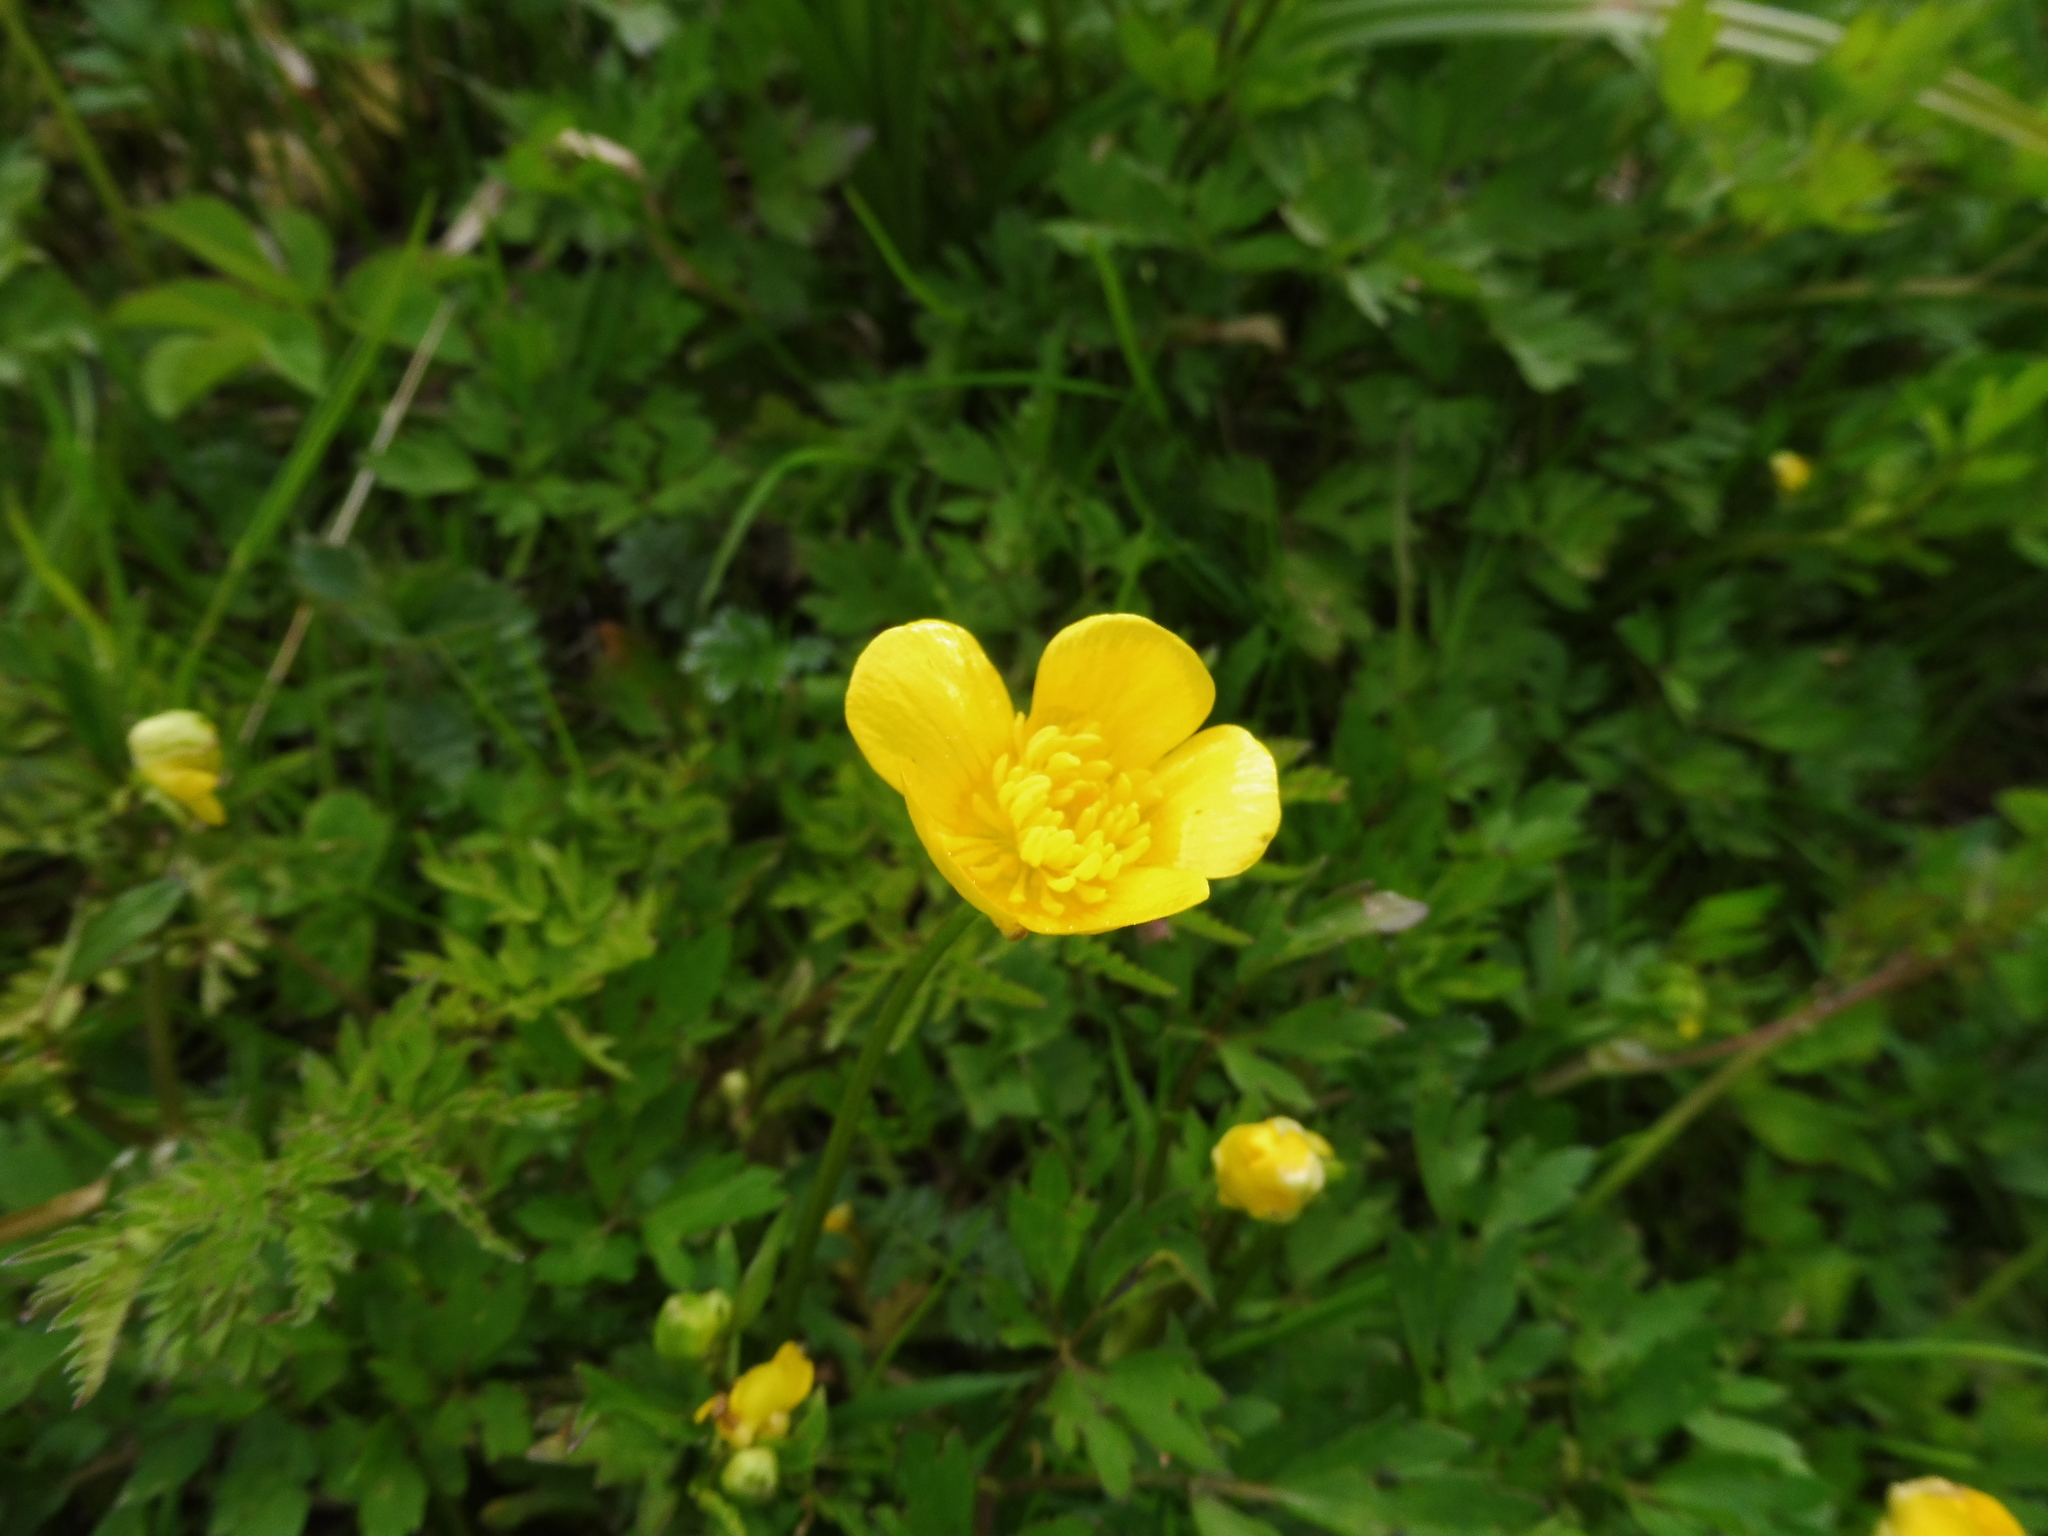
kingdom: Plantae
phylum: Tracheophyta
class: Magnoliopsida
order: Ranunculales
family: Ranunculaceae
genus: Ranunculus
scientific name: Ranunculus repens
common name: Creeping buttercup
